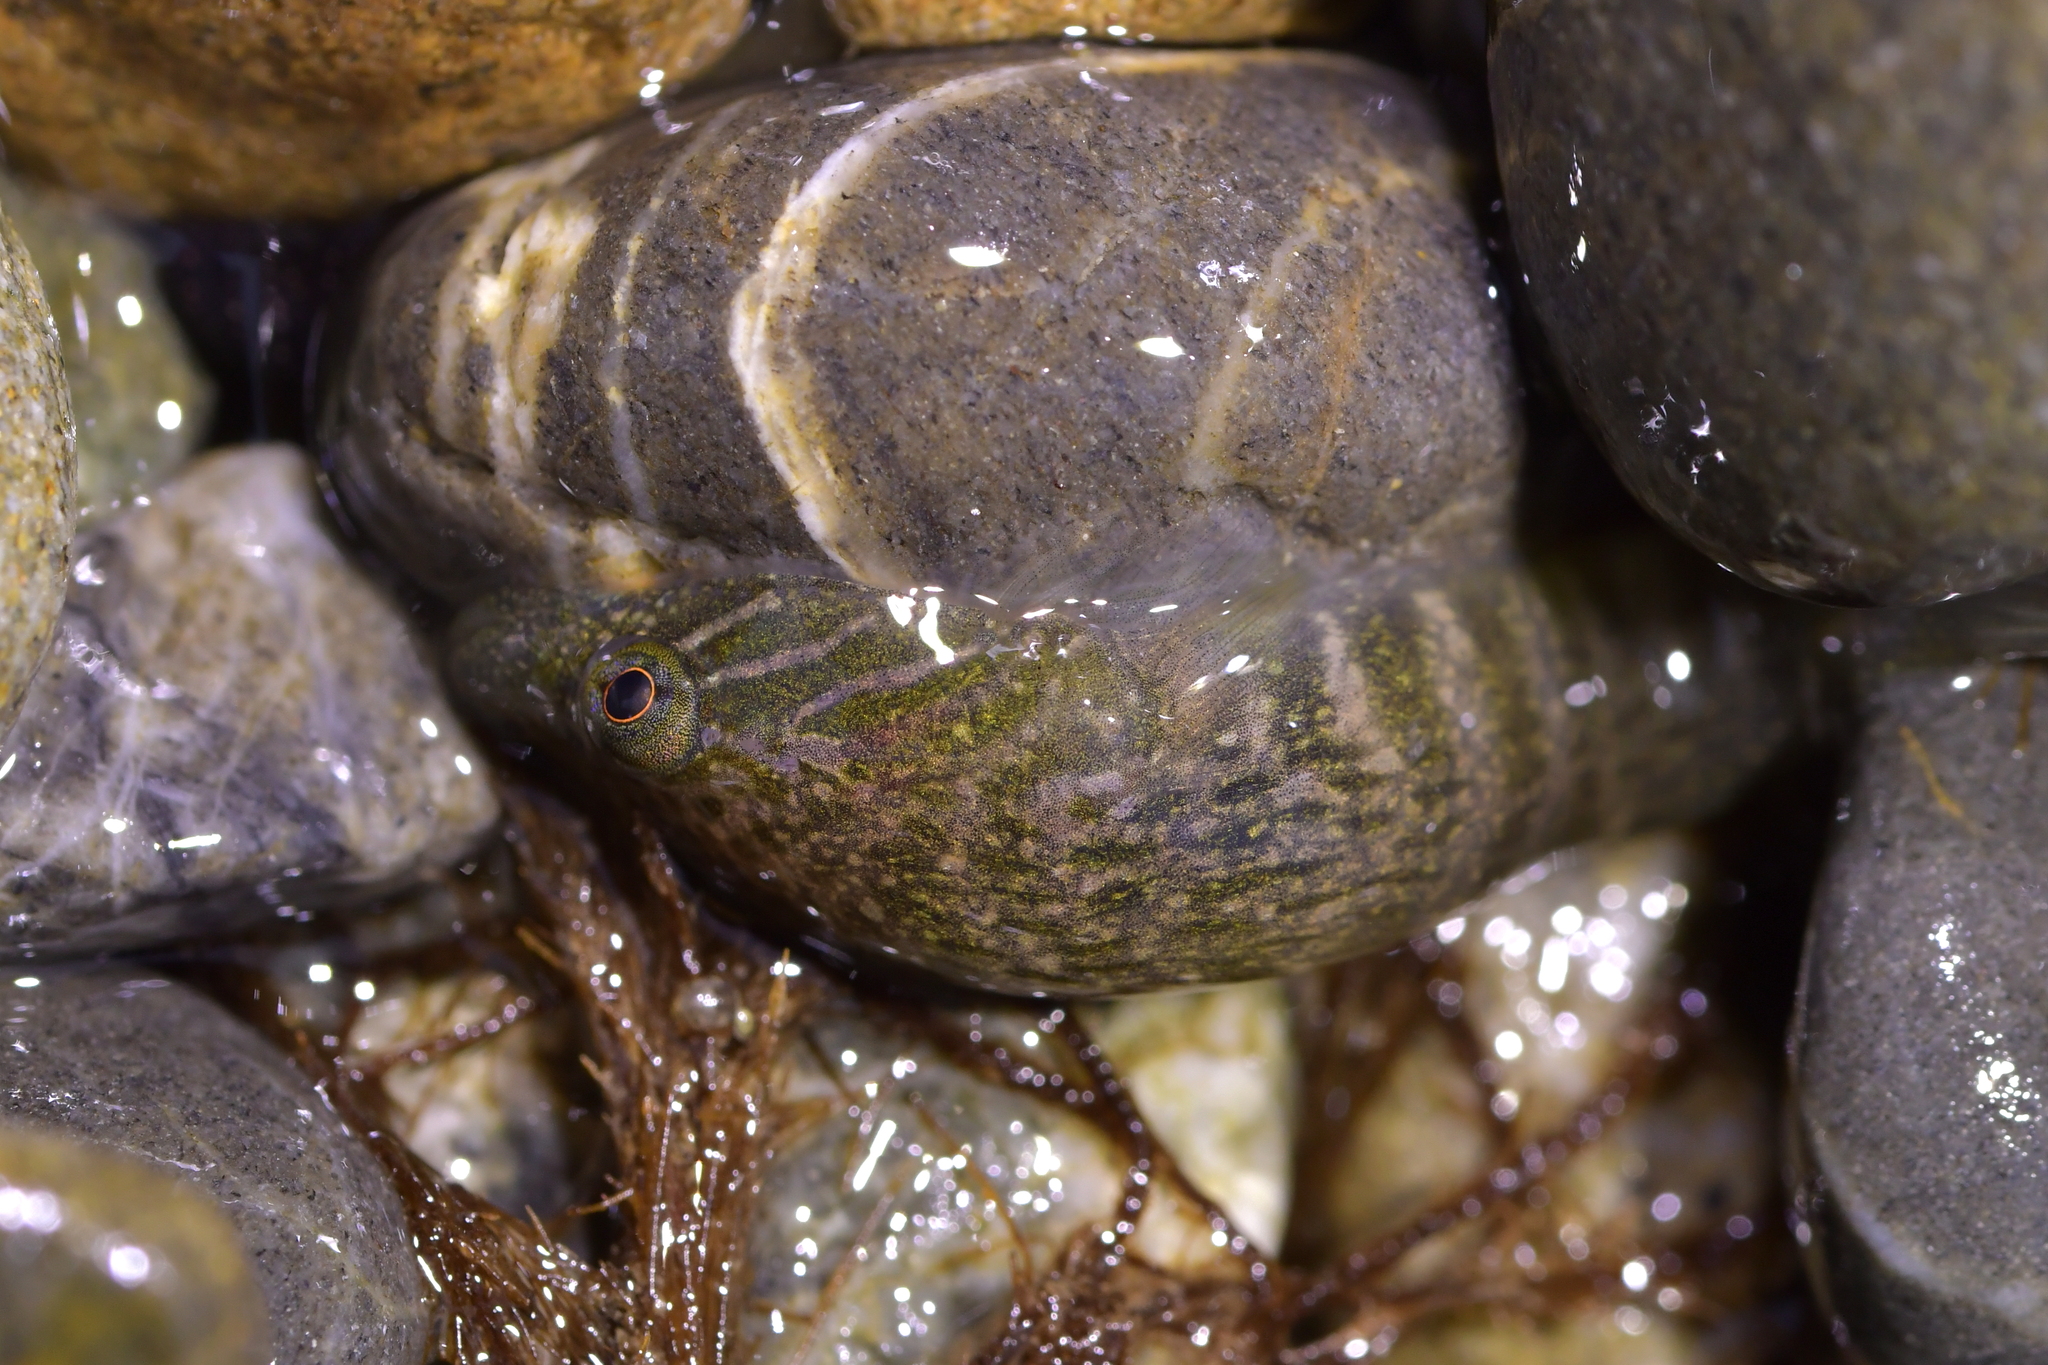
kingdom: Animalia
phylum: Chordata
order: Gobiesociformes
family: Gobiesocidae
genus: Trachelochismus
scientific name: Trachelochismus pinnulatus
